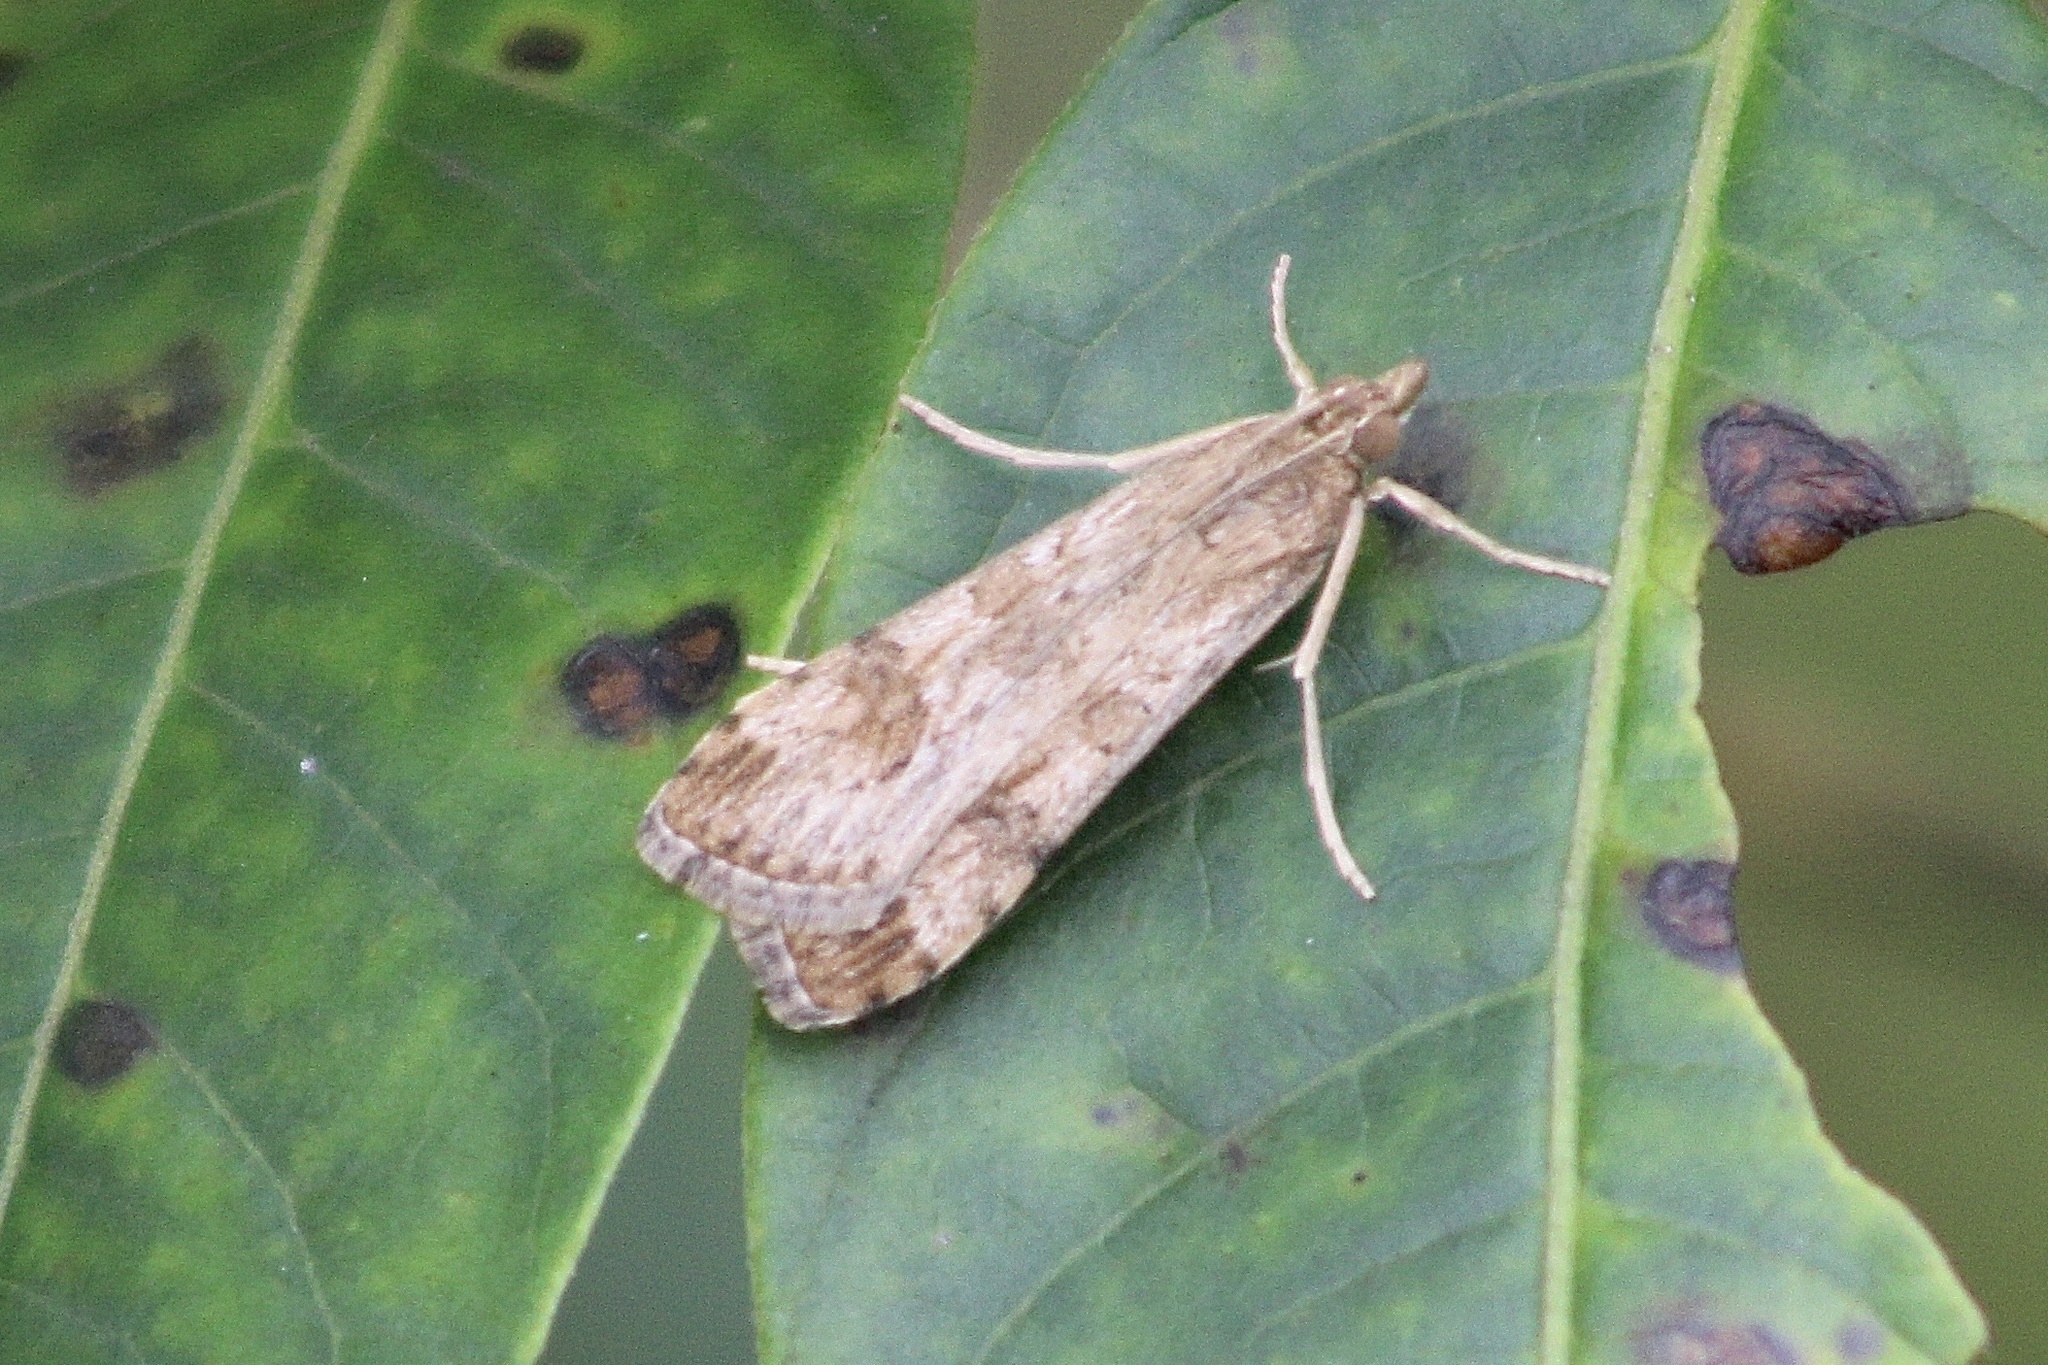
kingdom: Animalia
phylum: Arthropoda
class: Insecta
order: Lepidoptera
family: Crambidae
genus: Nomophila
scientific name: Nomophila nearctica
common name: American rush veneer
